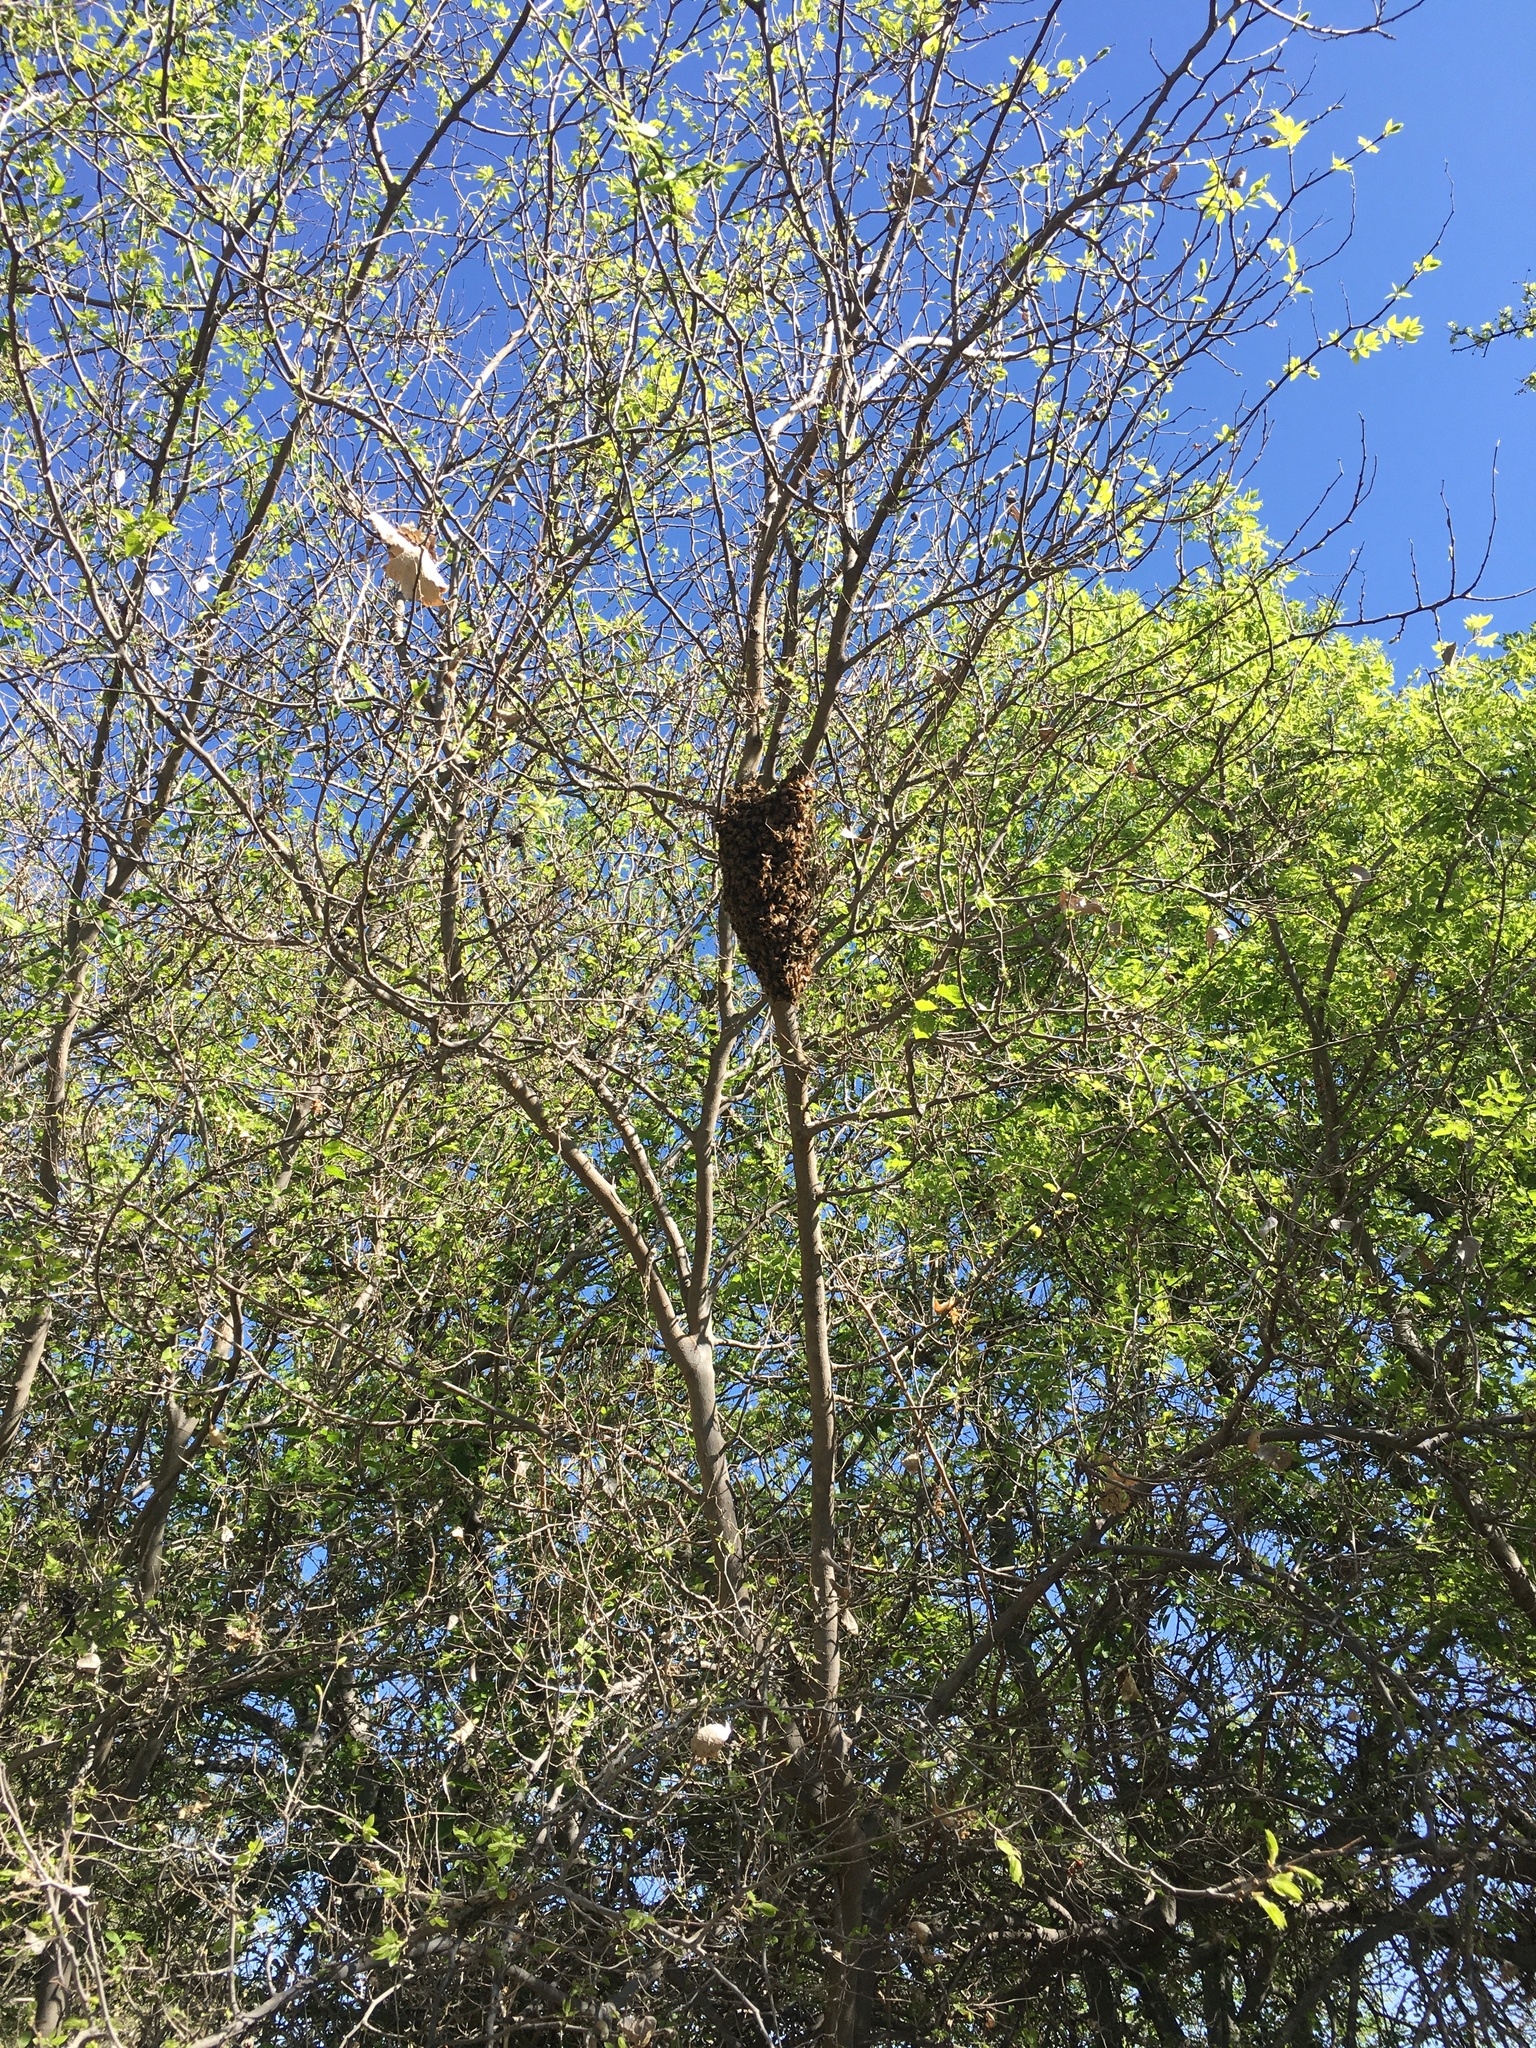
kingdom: Animalia
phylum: Arthropoda
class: Insecta
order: Hymenoptera
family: Apidae
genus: Apis
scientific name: Apis mellifera
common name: Honey bee
